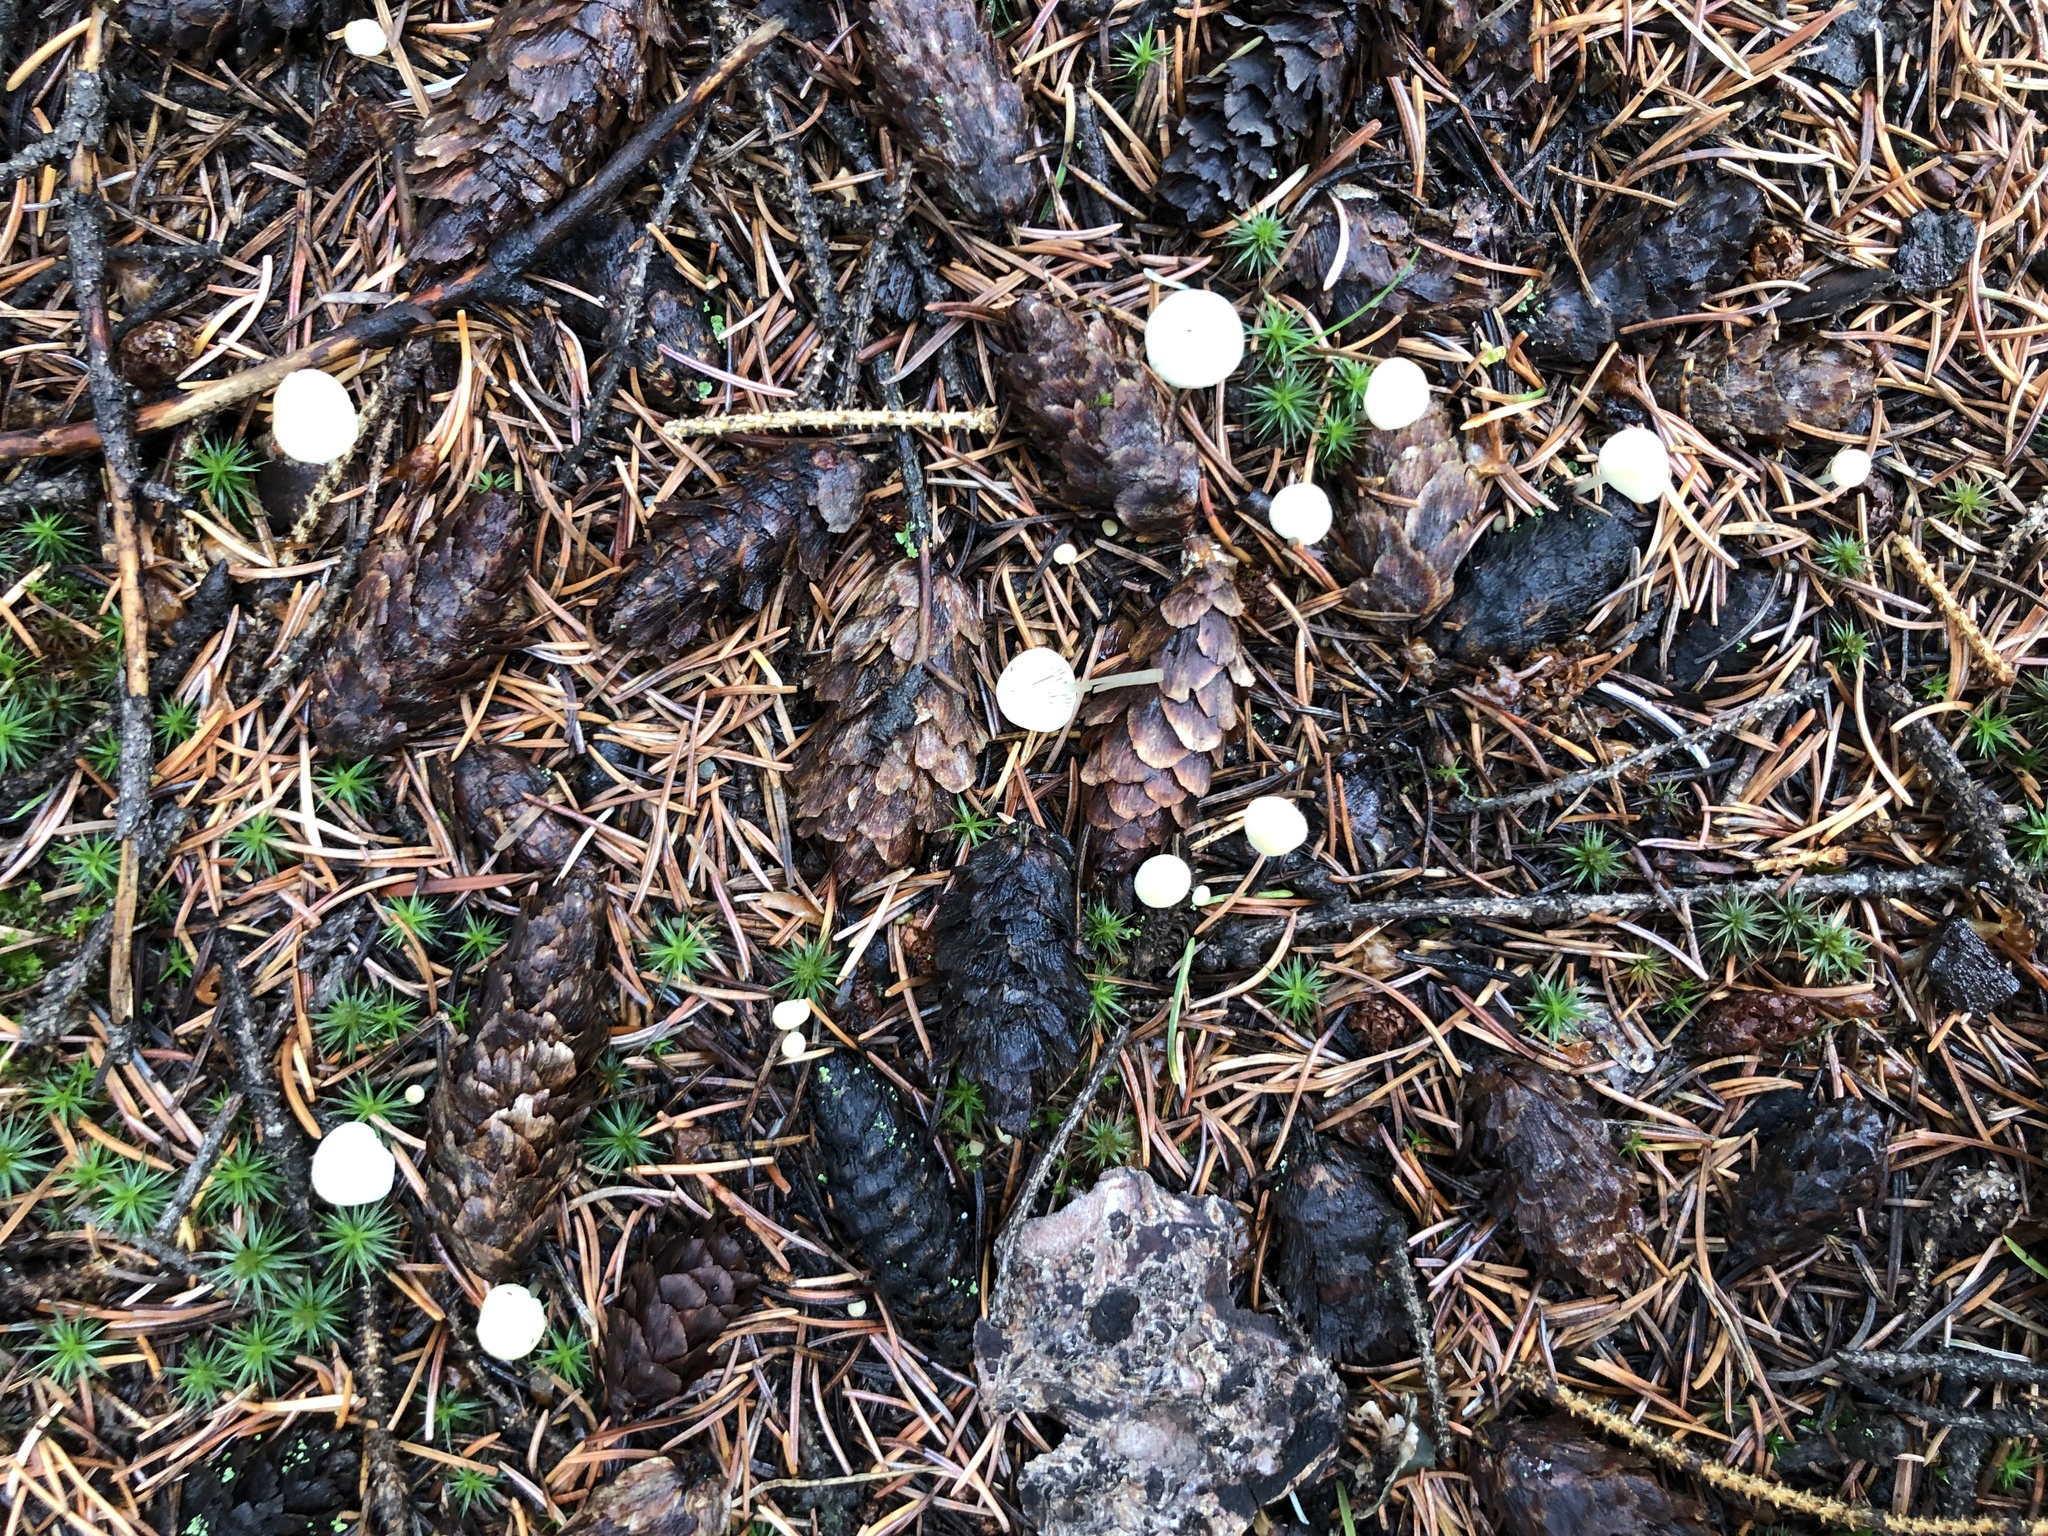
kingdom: Fungi
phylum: Basidiomycota
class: Agaricomycetes
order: Agaricales
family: Mycenaceae
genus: Atheniella
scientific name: Atheniella flavoalba
